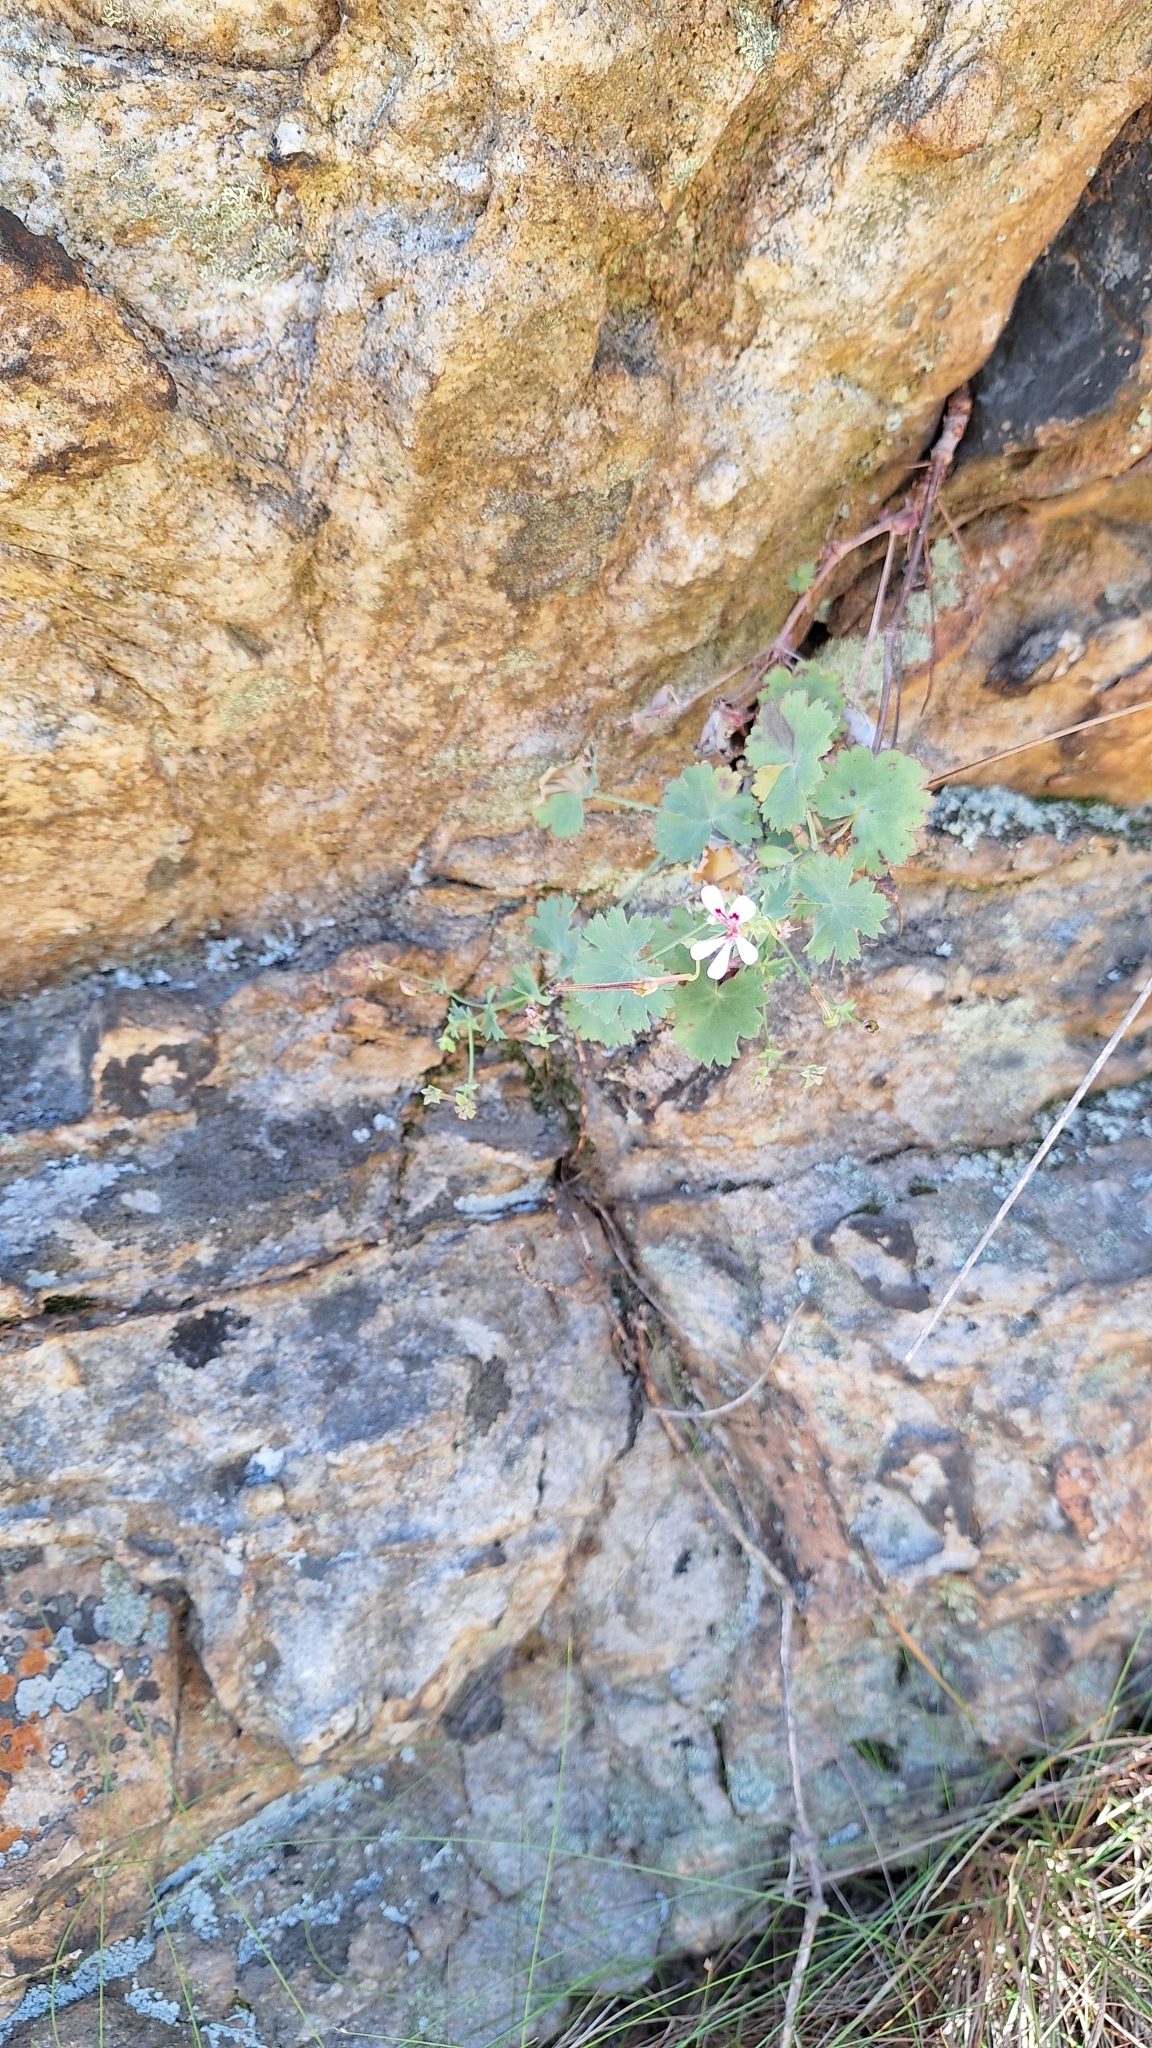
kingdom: Plantae
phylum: Tracheophyta
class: Magnoliopsida
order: Geraniales
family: Geraniaceae
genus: Pelargonium
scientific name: Pelargonium patulum
